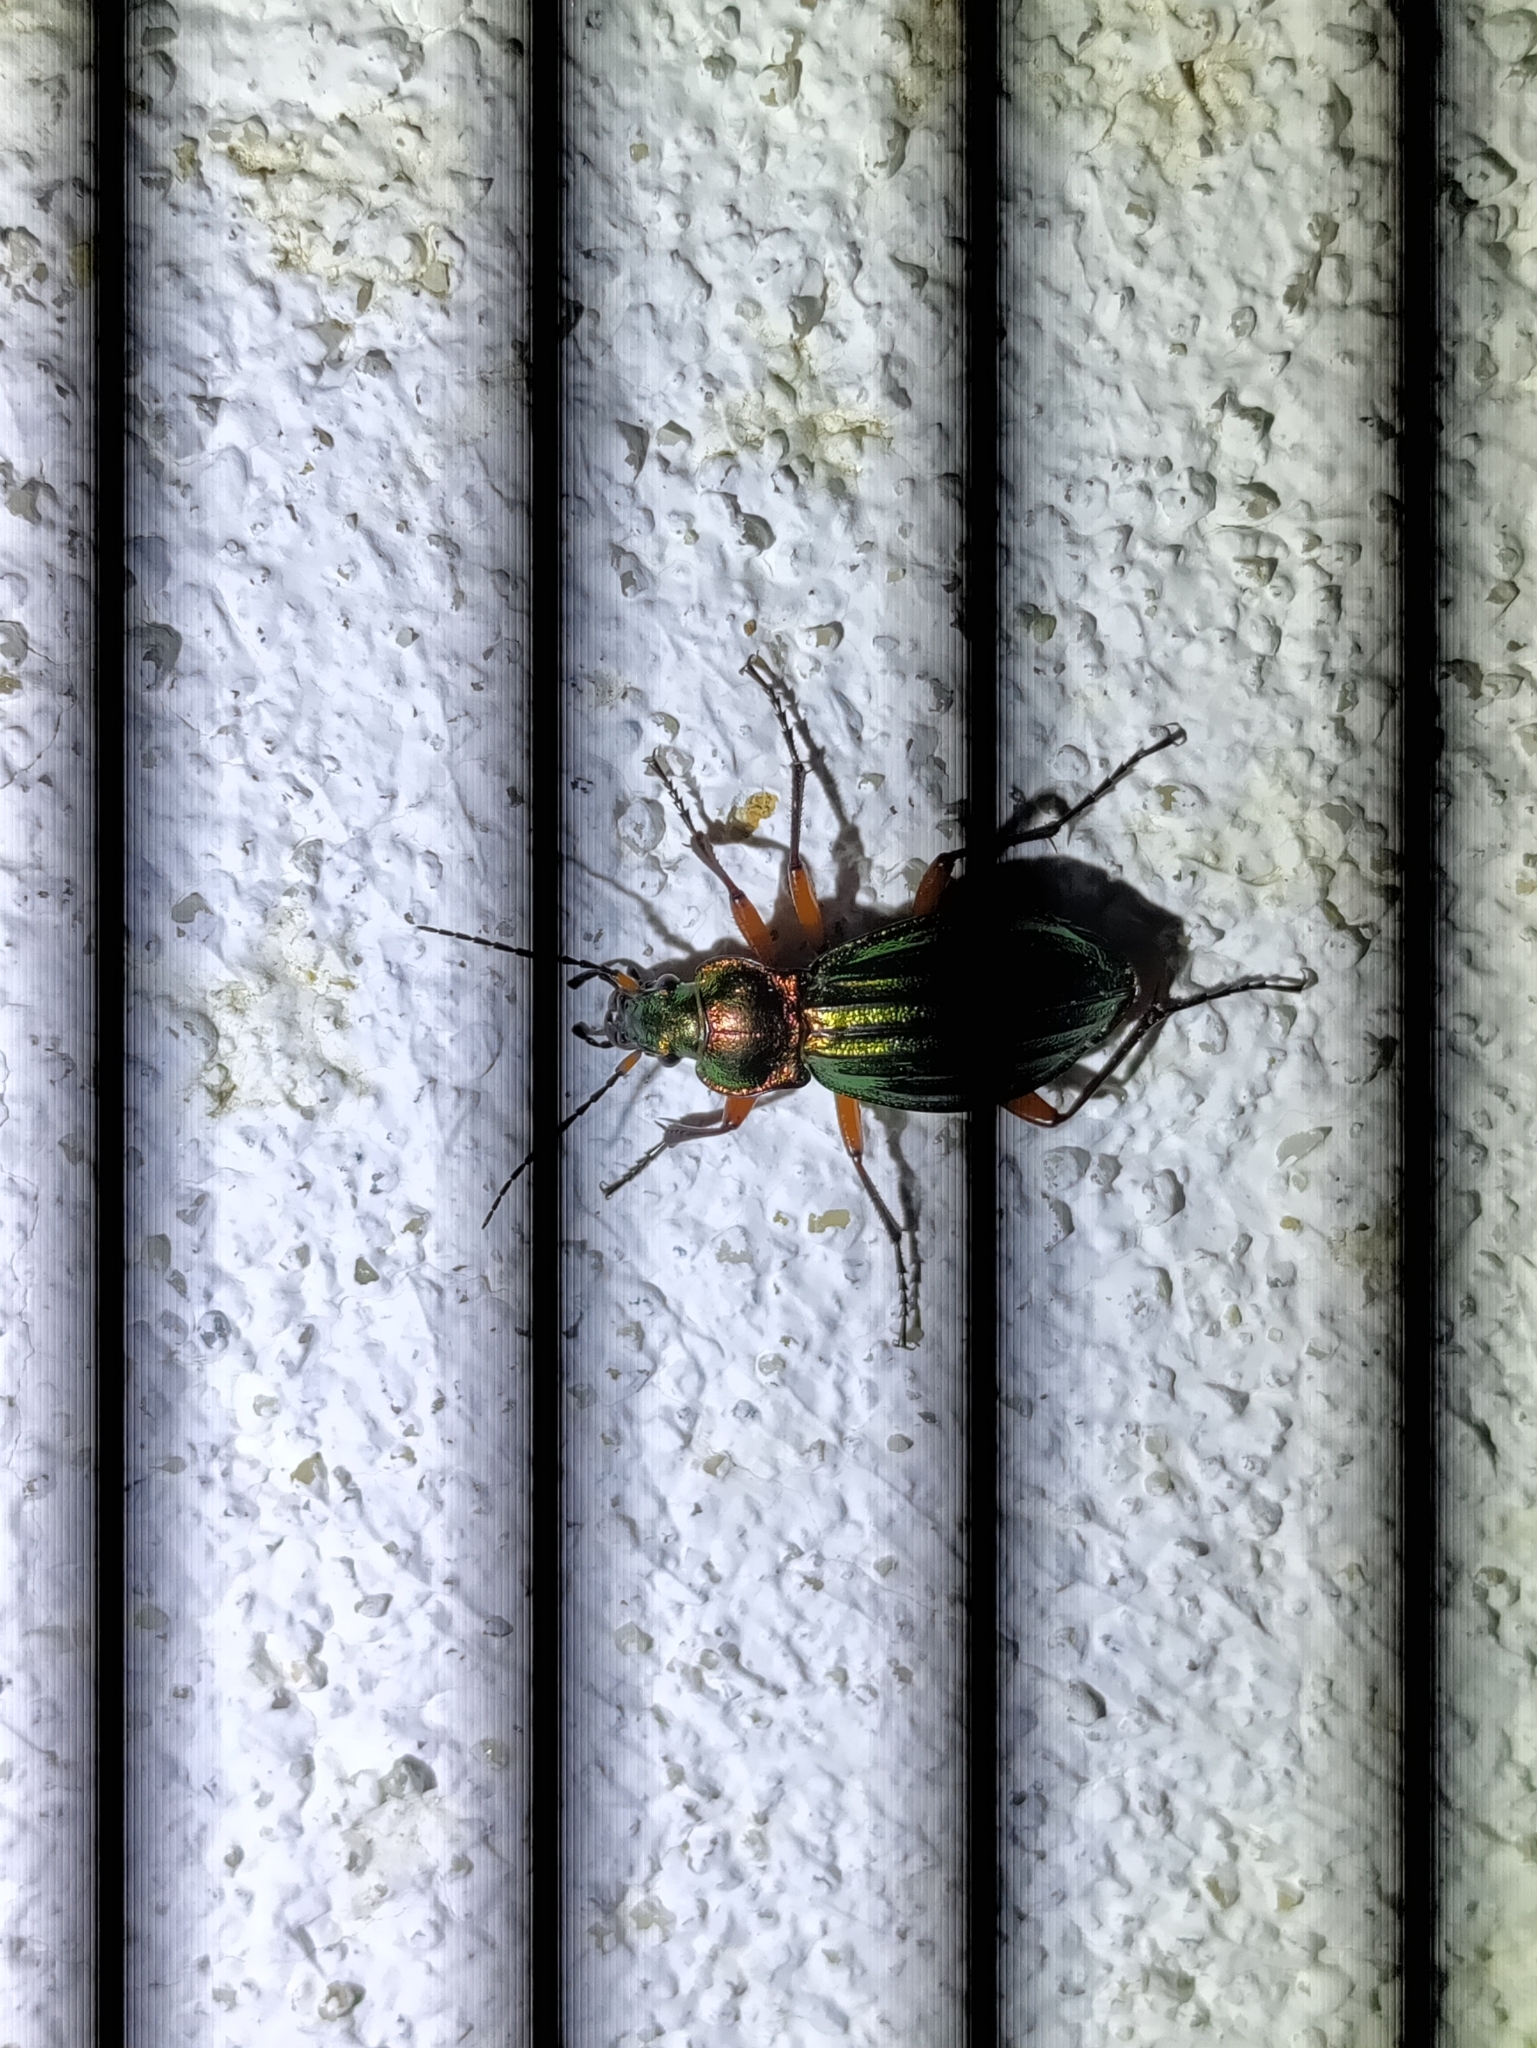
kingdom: Animalia
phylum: Arthropoda
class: Insecta
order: Coleoptera
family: Carabidae
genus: Carabus
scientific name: Carabus auronitens
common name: Carabus auronitens
